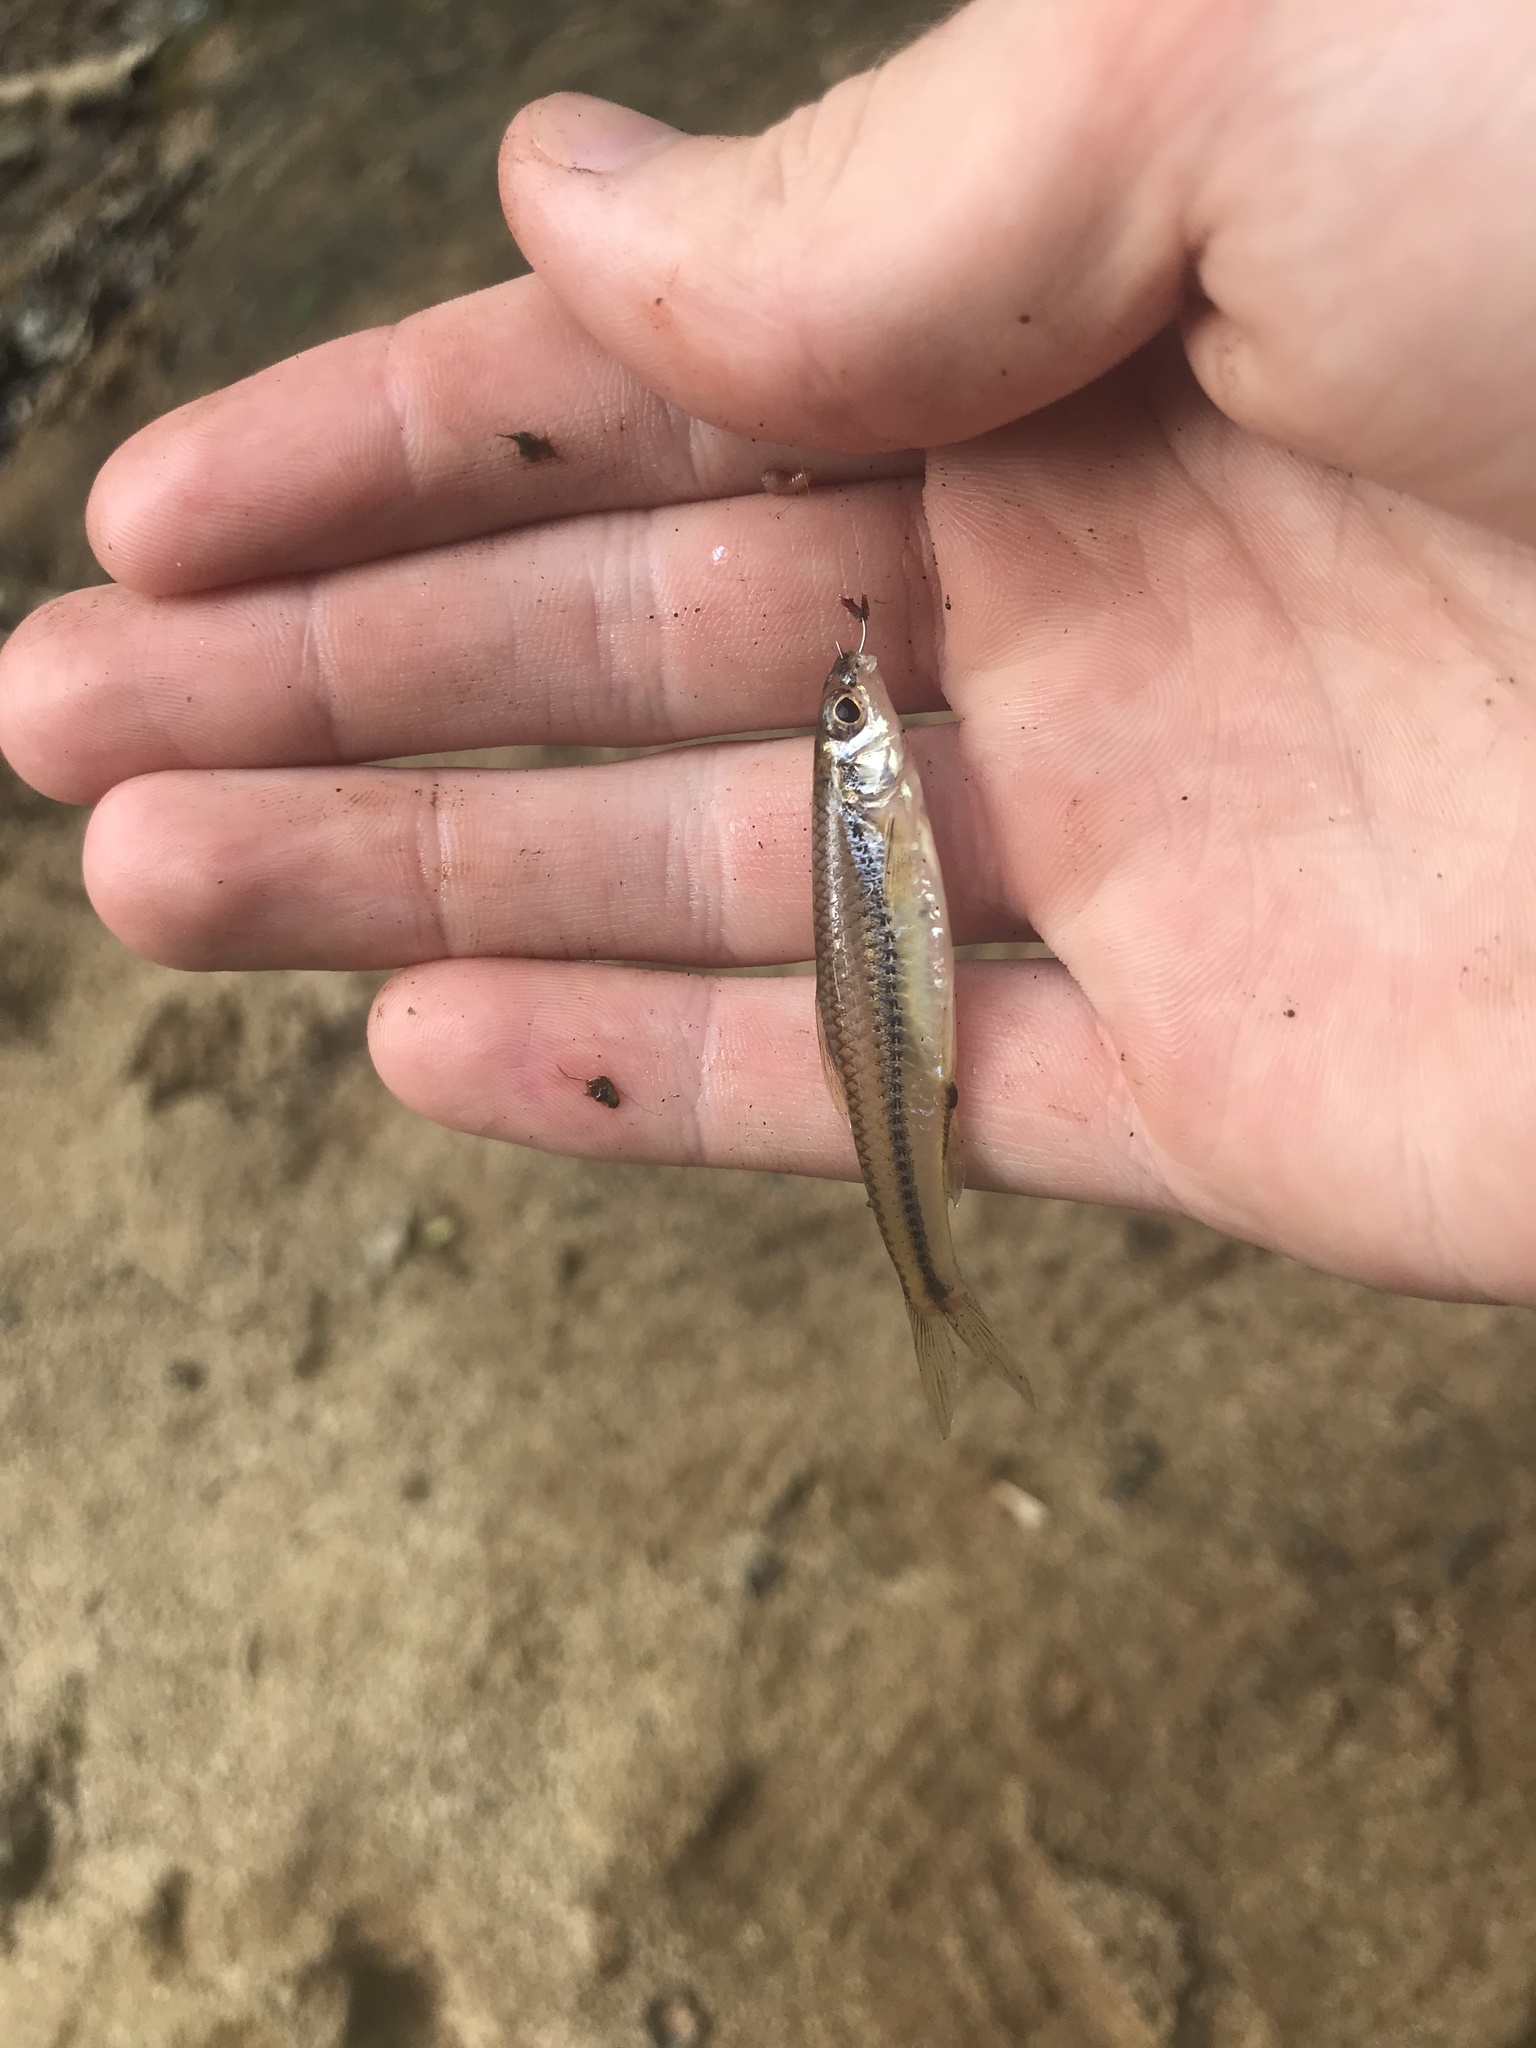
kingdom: Animalia
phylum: Chordata
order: Cypriniformes
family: Cyprinidae
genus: Notropis
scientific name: Notropis
